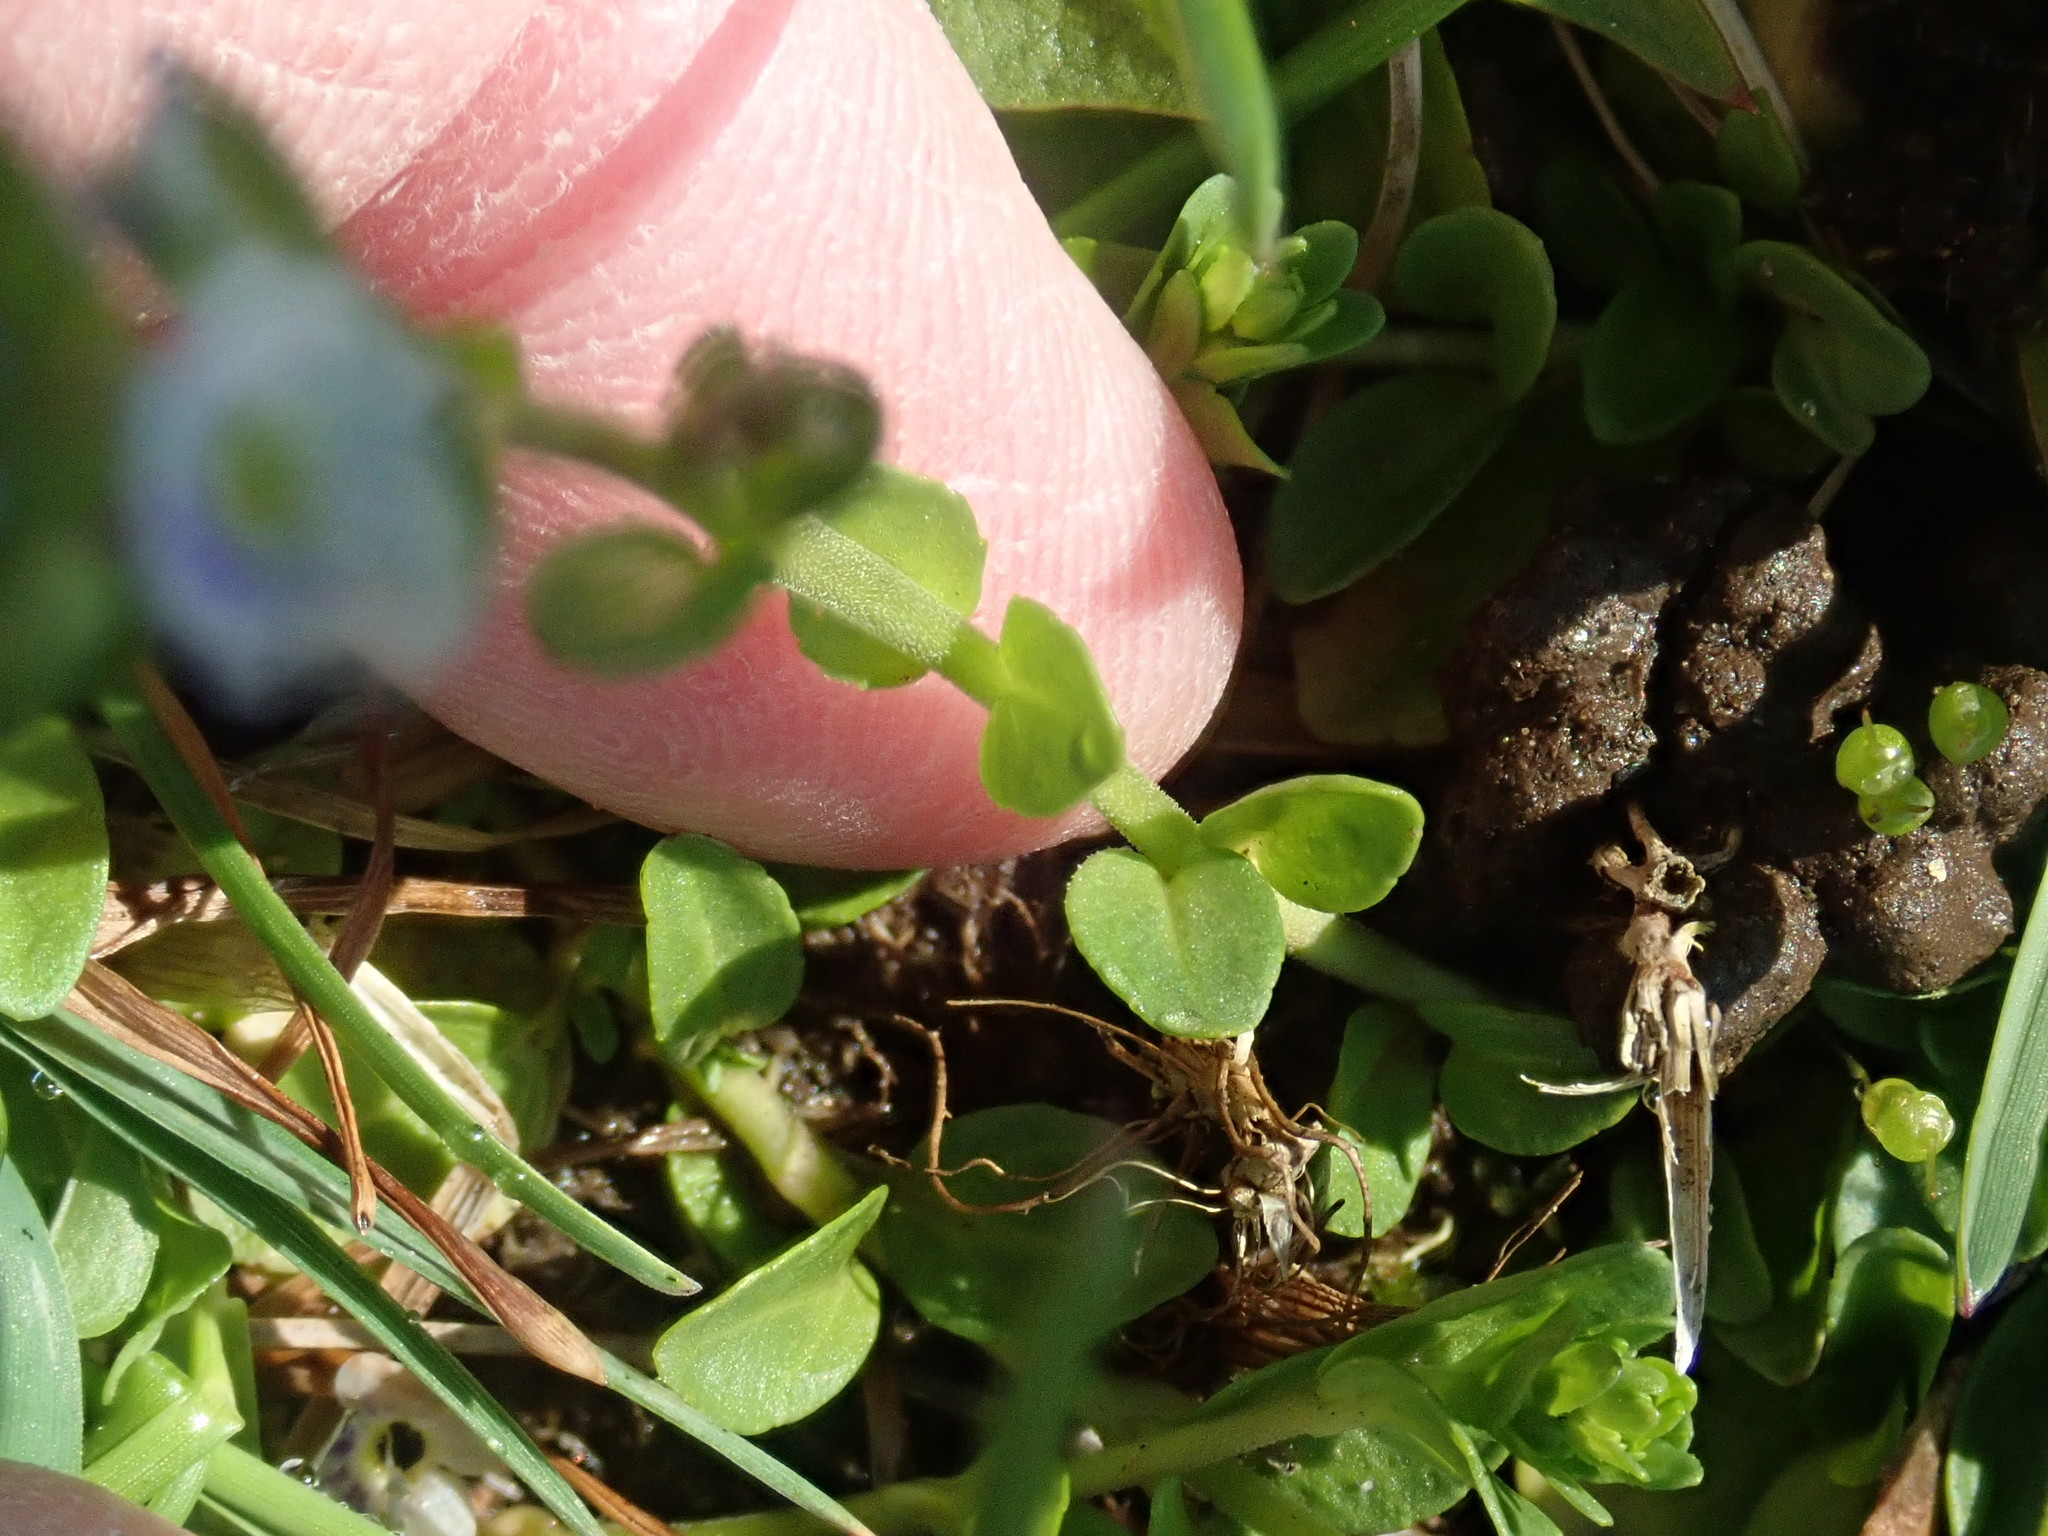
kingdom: Plantae
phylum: Tracheophyta
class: Magnoliopsida
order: Lamiales
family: Plantaginaceae
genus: Veronica
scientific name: Veronica serpyllifolia
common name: Thyme-leaved speedwell
